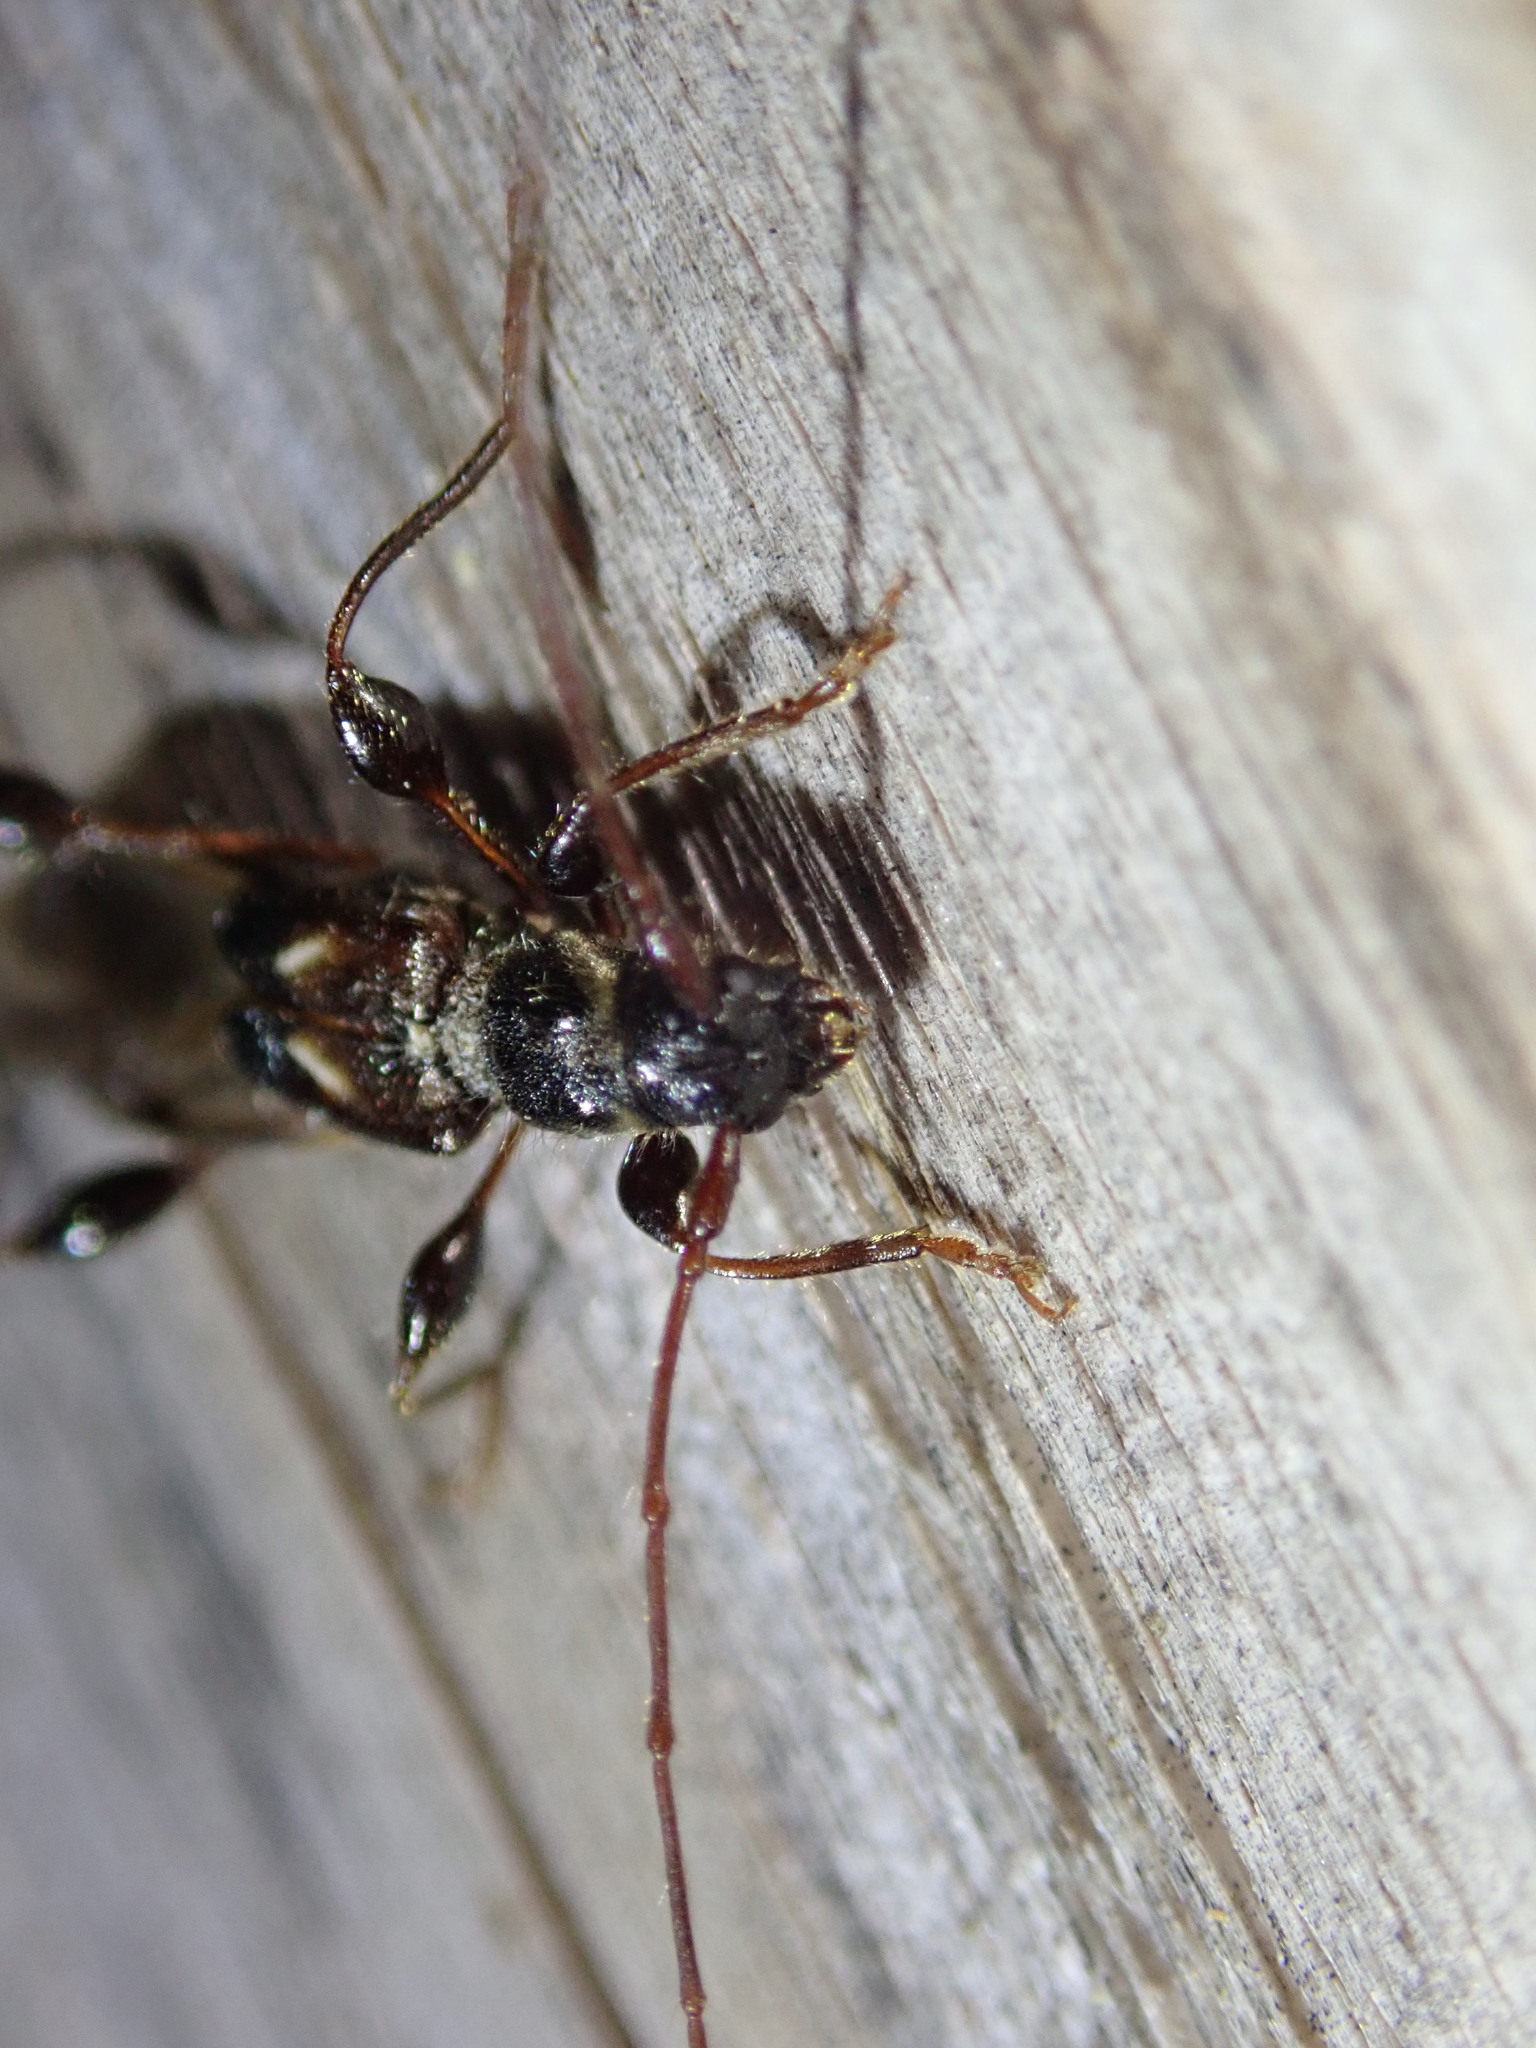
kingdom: Animalia
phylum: Arthropoda
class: Insecta
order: Coleoptera
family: Cerambycidae
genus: Molorchus
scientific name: Molorchus minor
